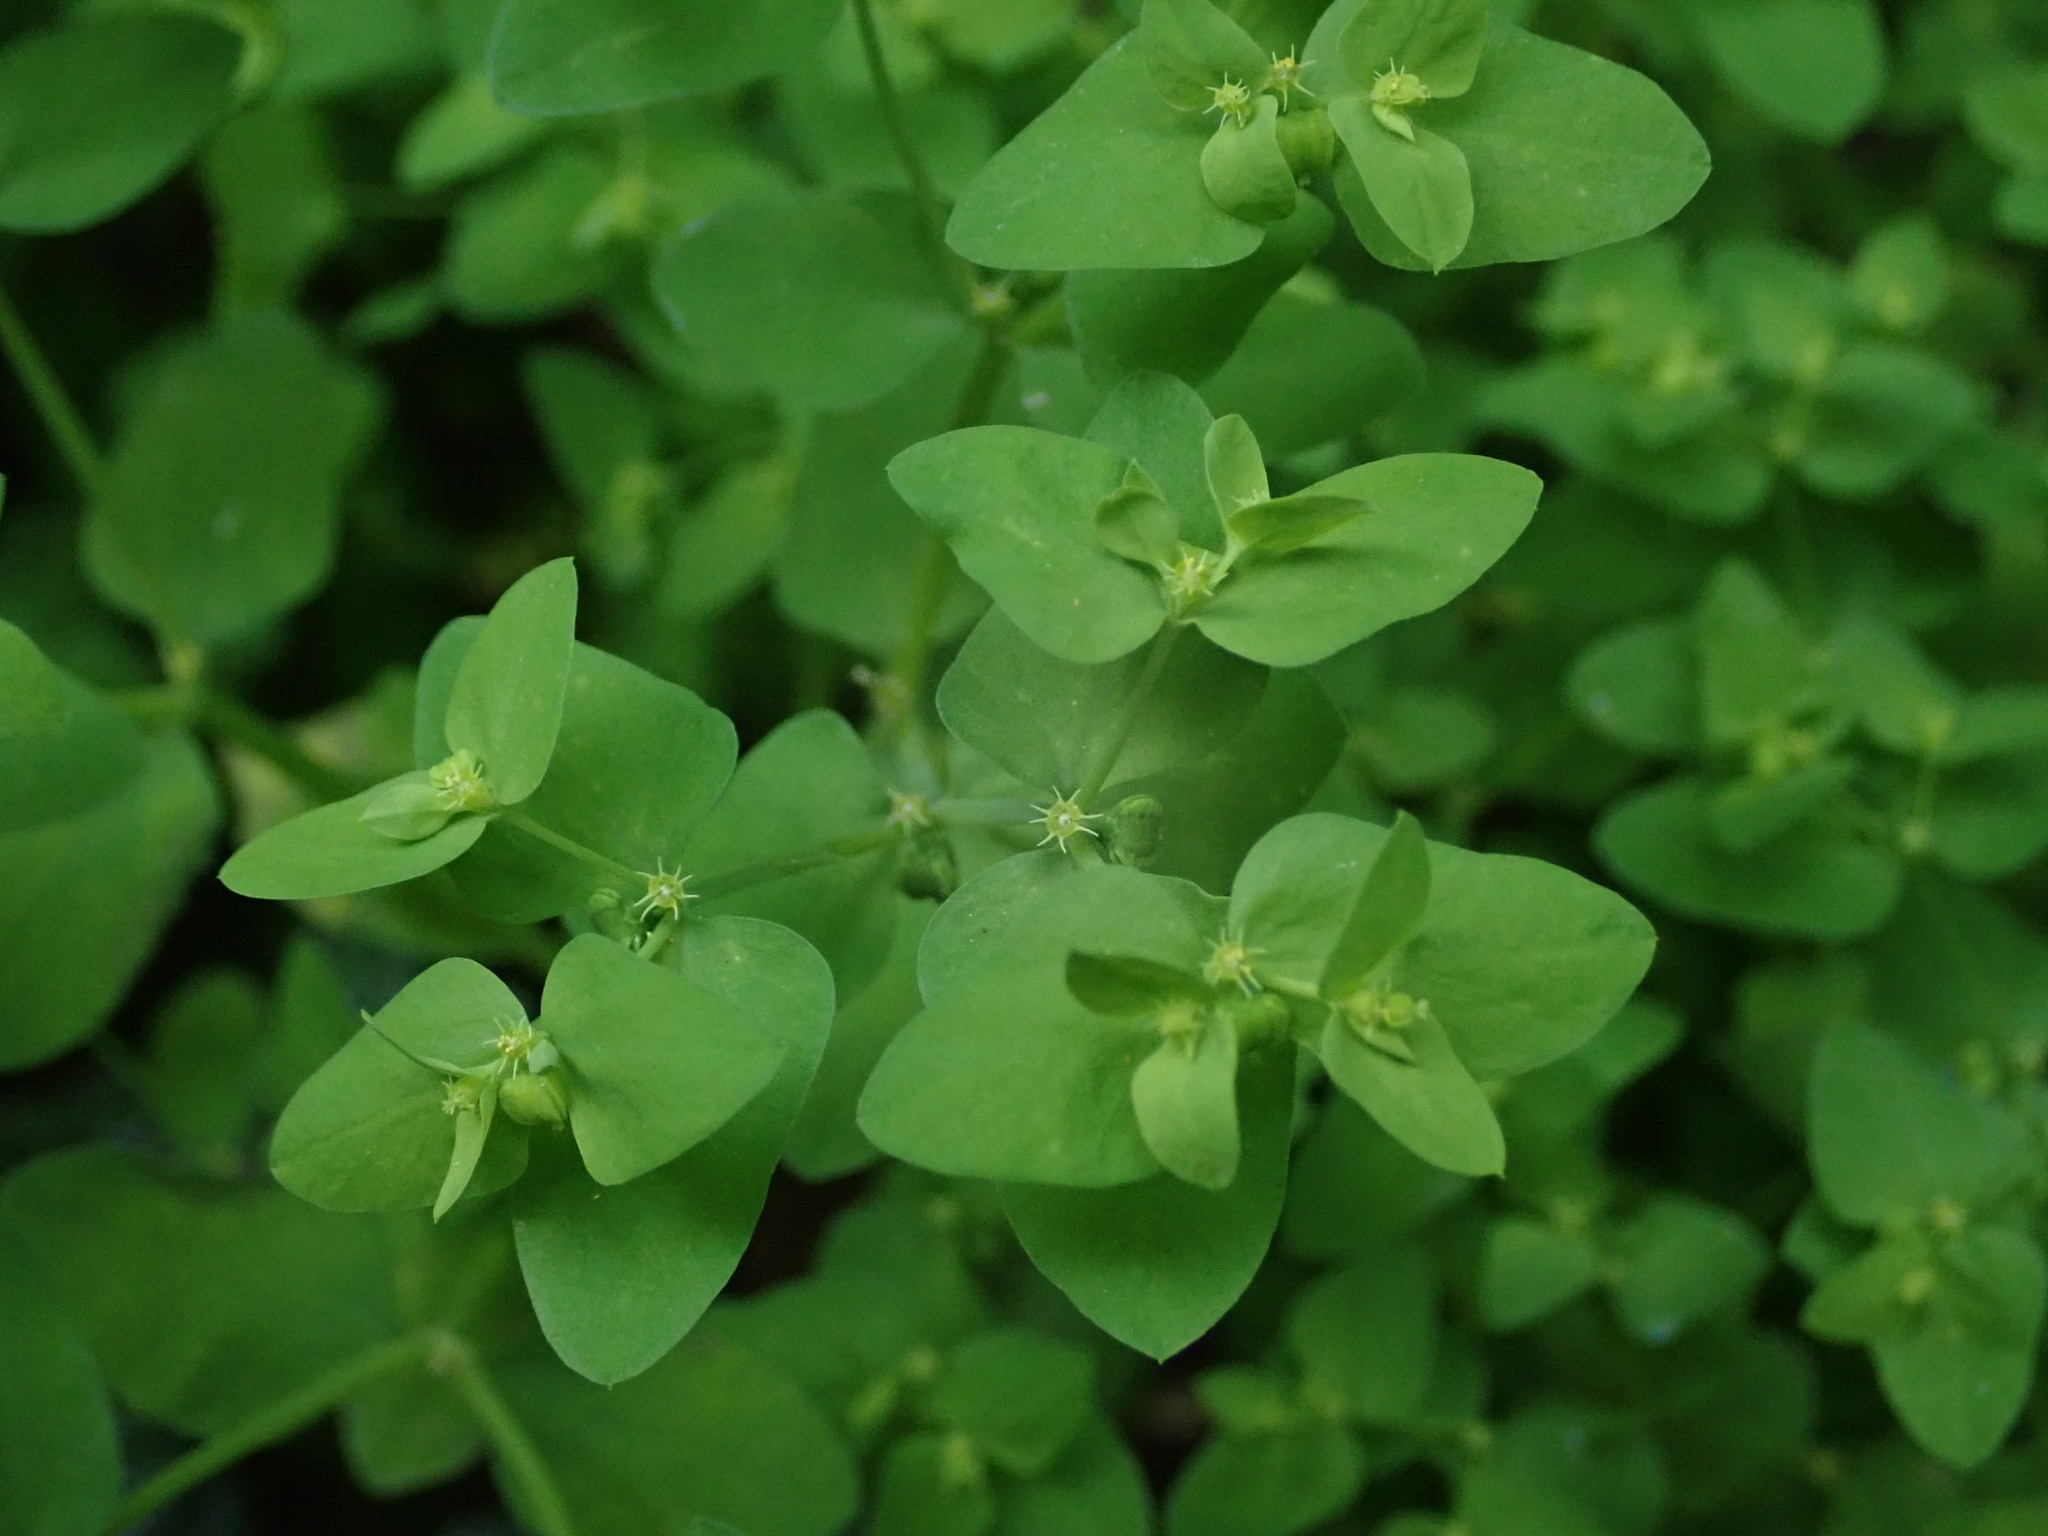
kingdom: Plantae
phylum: Tracheophyta
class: Magnoliopsida
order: Malpighiales
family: Euphorbiaceae
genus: Euphorbia
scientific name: Euphorbia peplus
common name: Petty spurge
